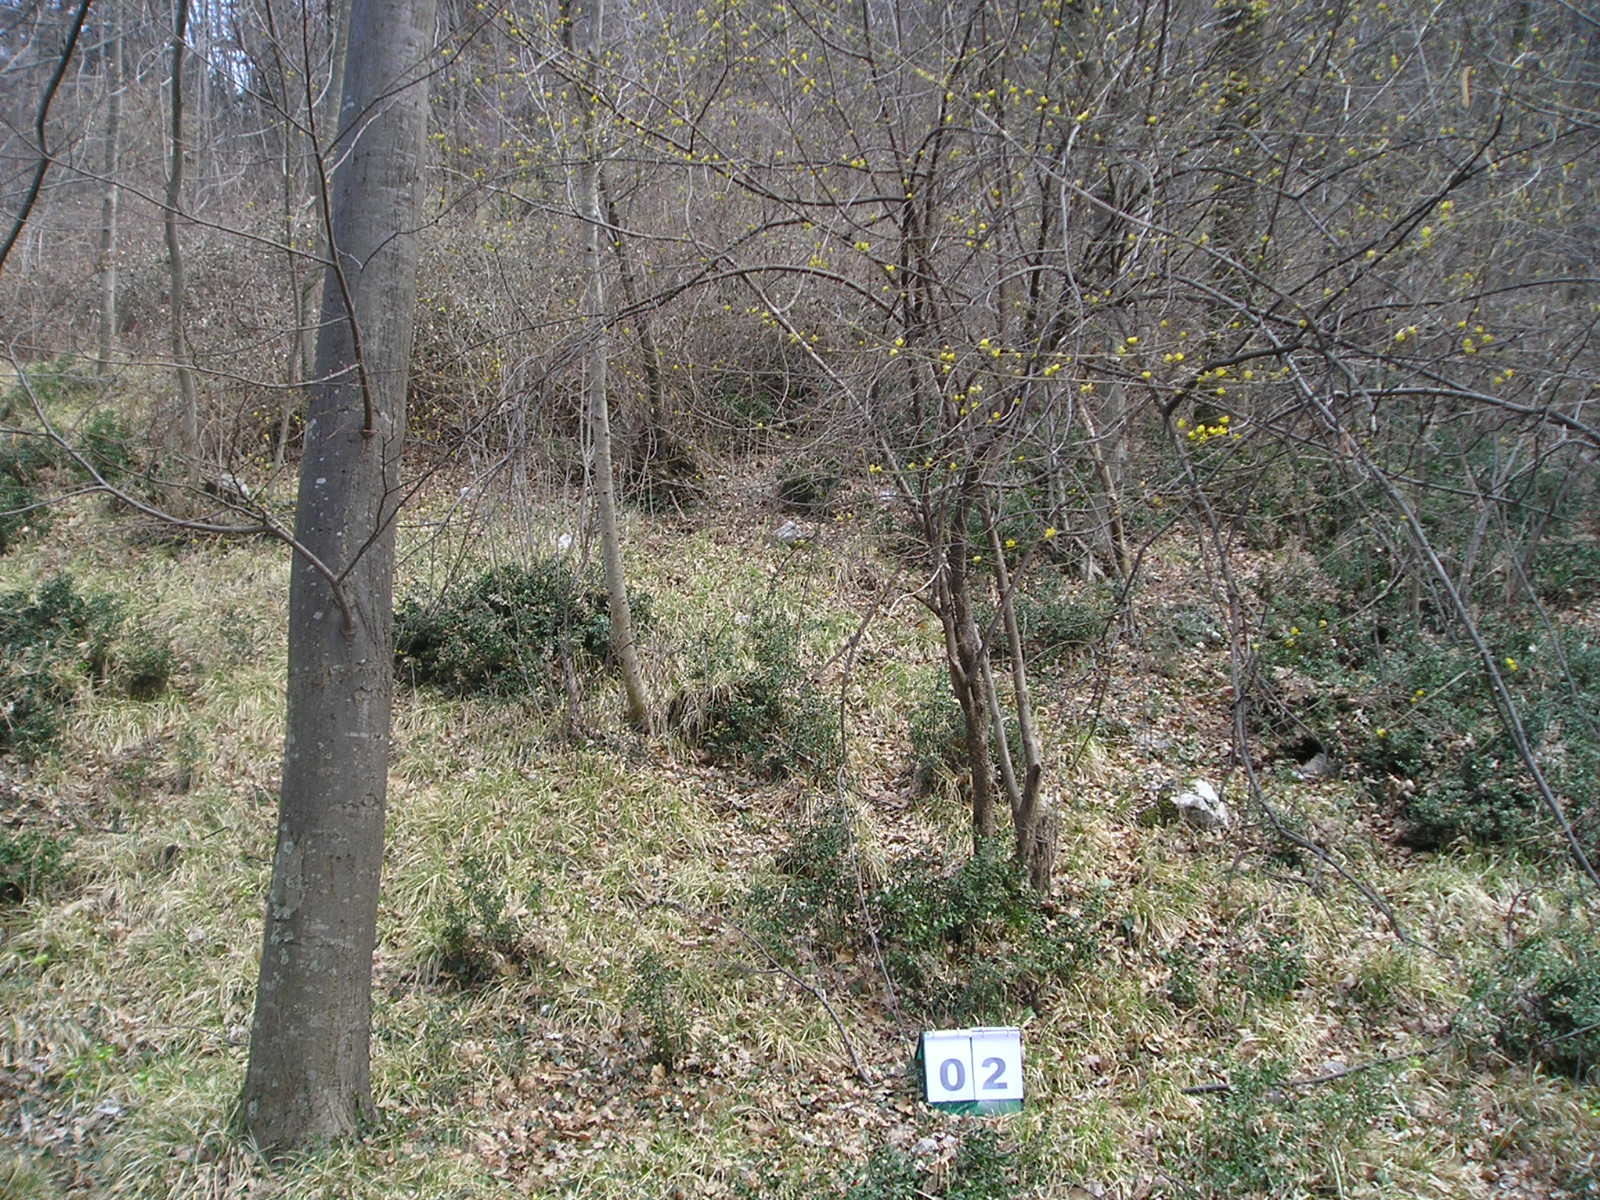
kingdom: Plantae
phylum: Tracheophyta
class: Magnoliopsida
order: Cornales
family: Cornaceae
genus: Cornus
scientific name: Cornus mas
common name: Cornelian-cherry
